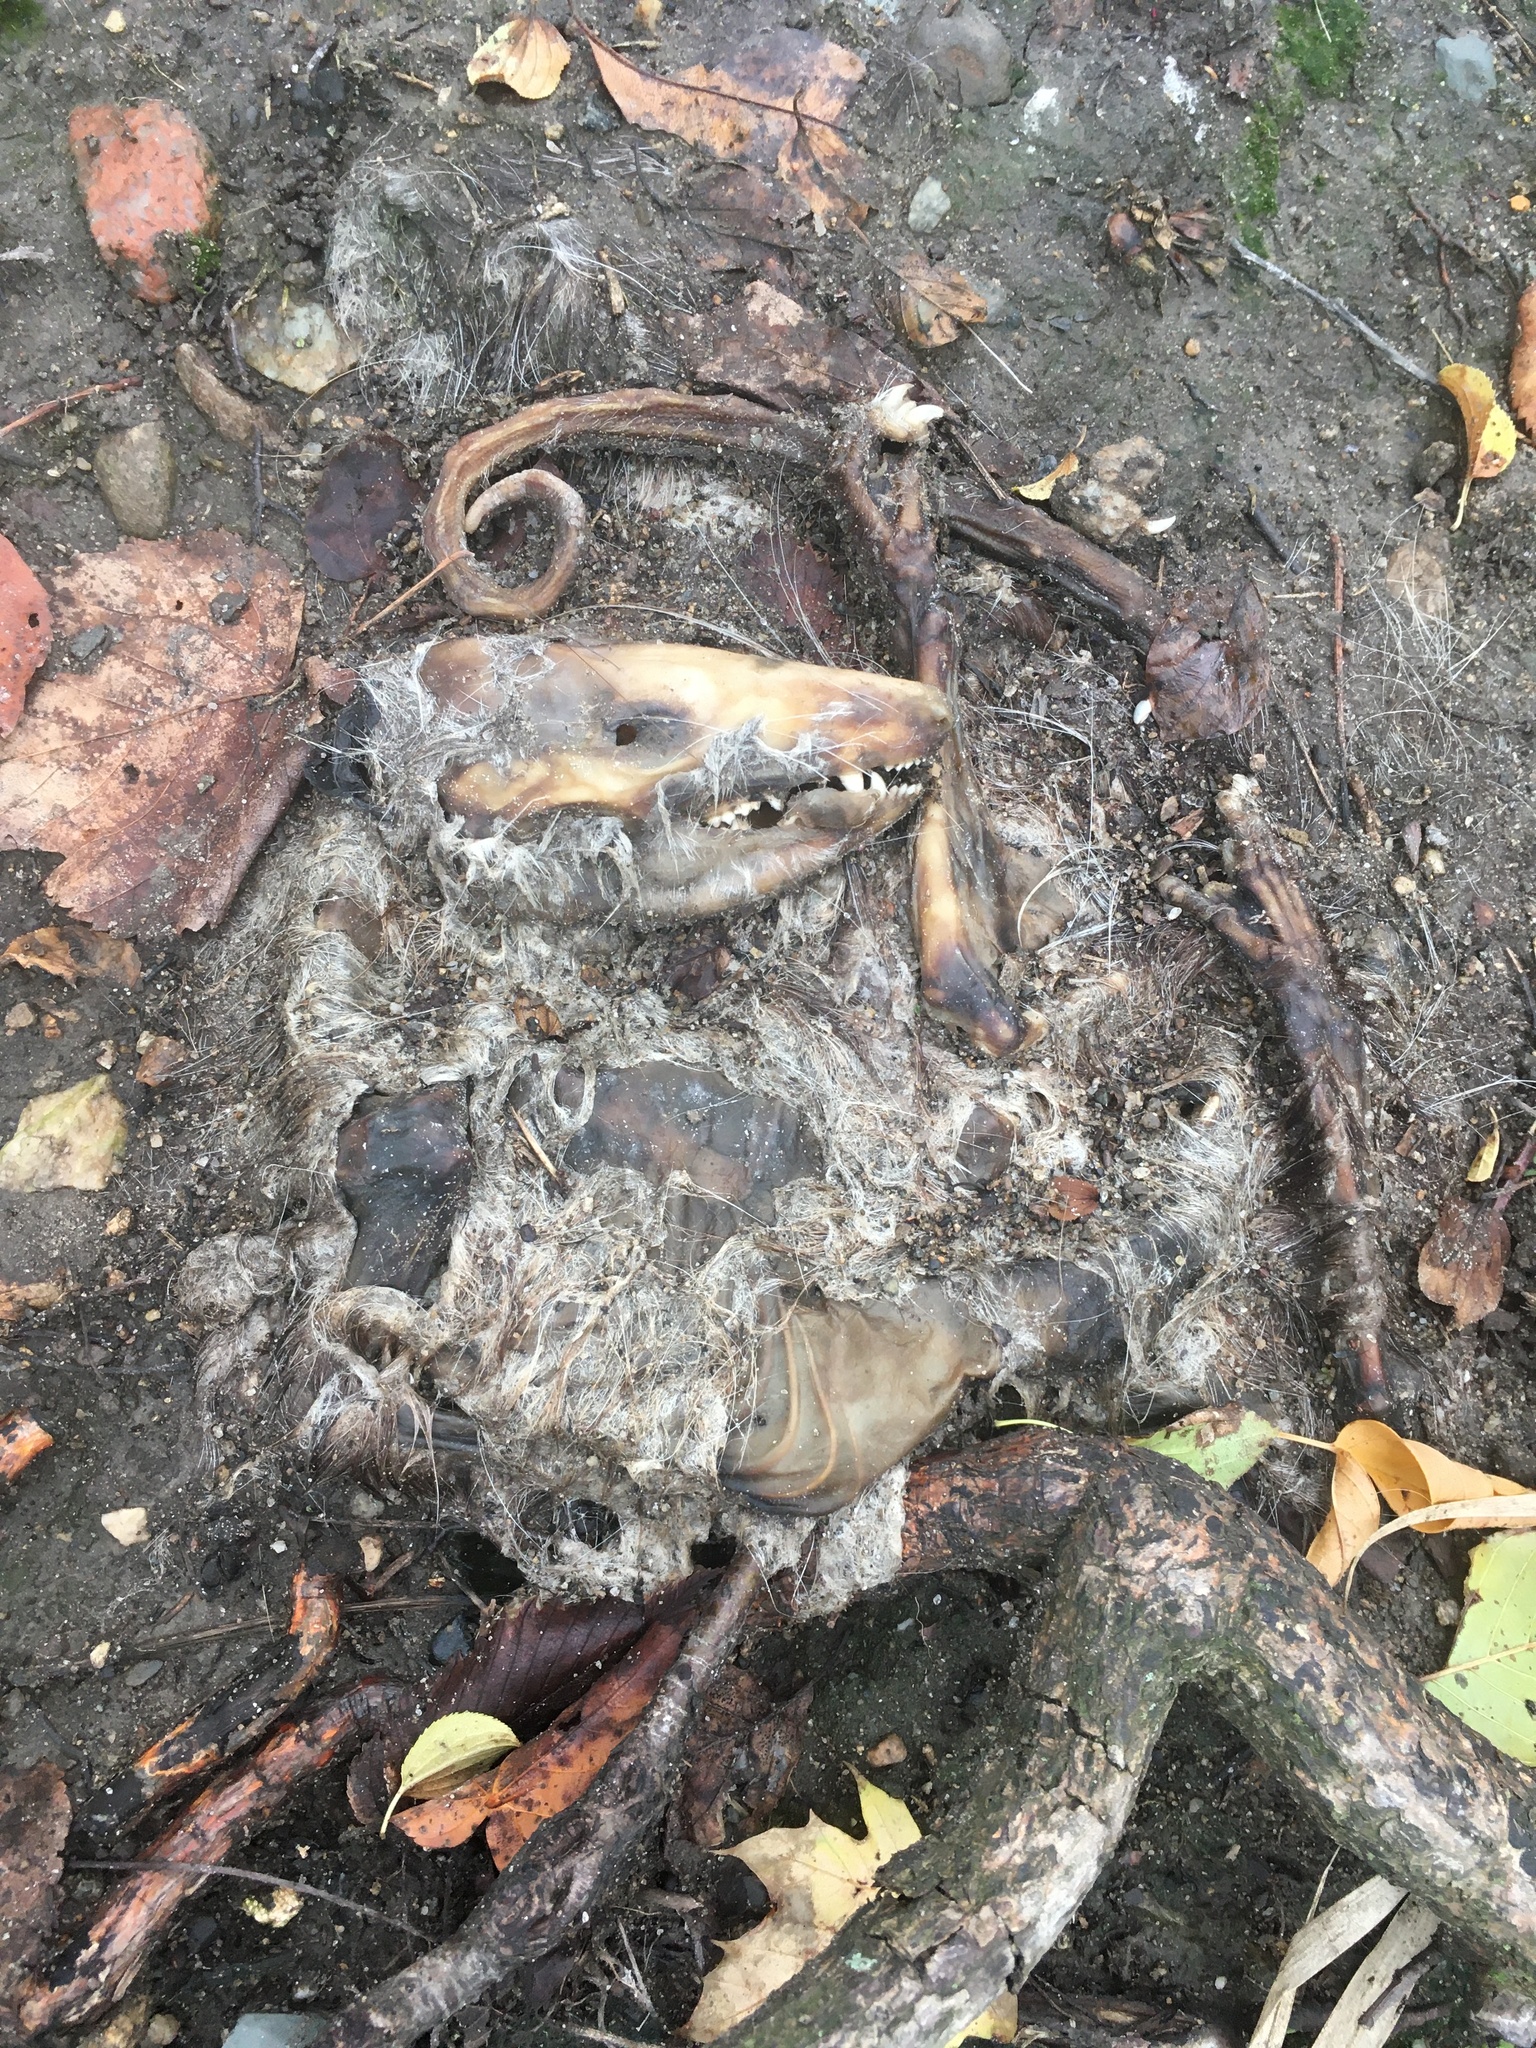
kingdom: Animalia
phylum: Chordata
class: Mammalia
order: Didelphimorphia
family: Didelphidae
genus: Didelphis
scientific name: Didelphis virginiana
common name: Virginia opossum
